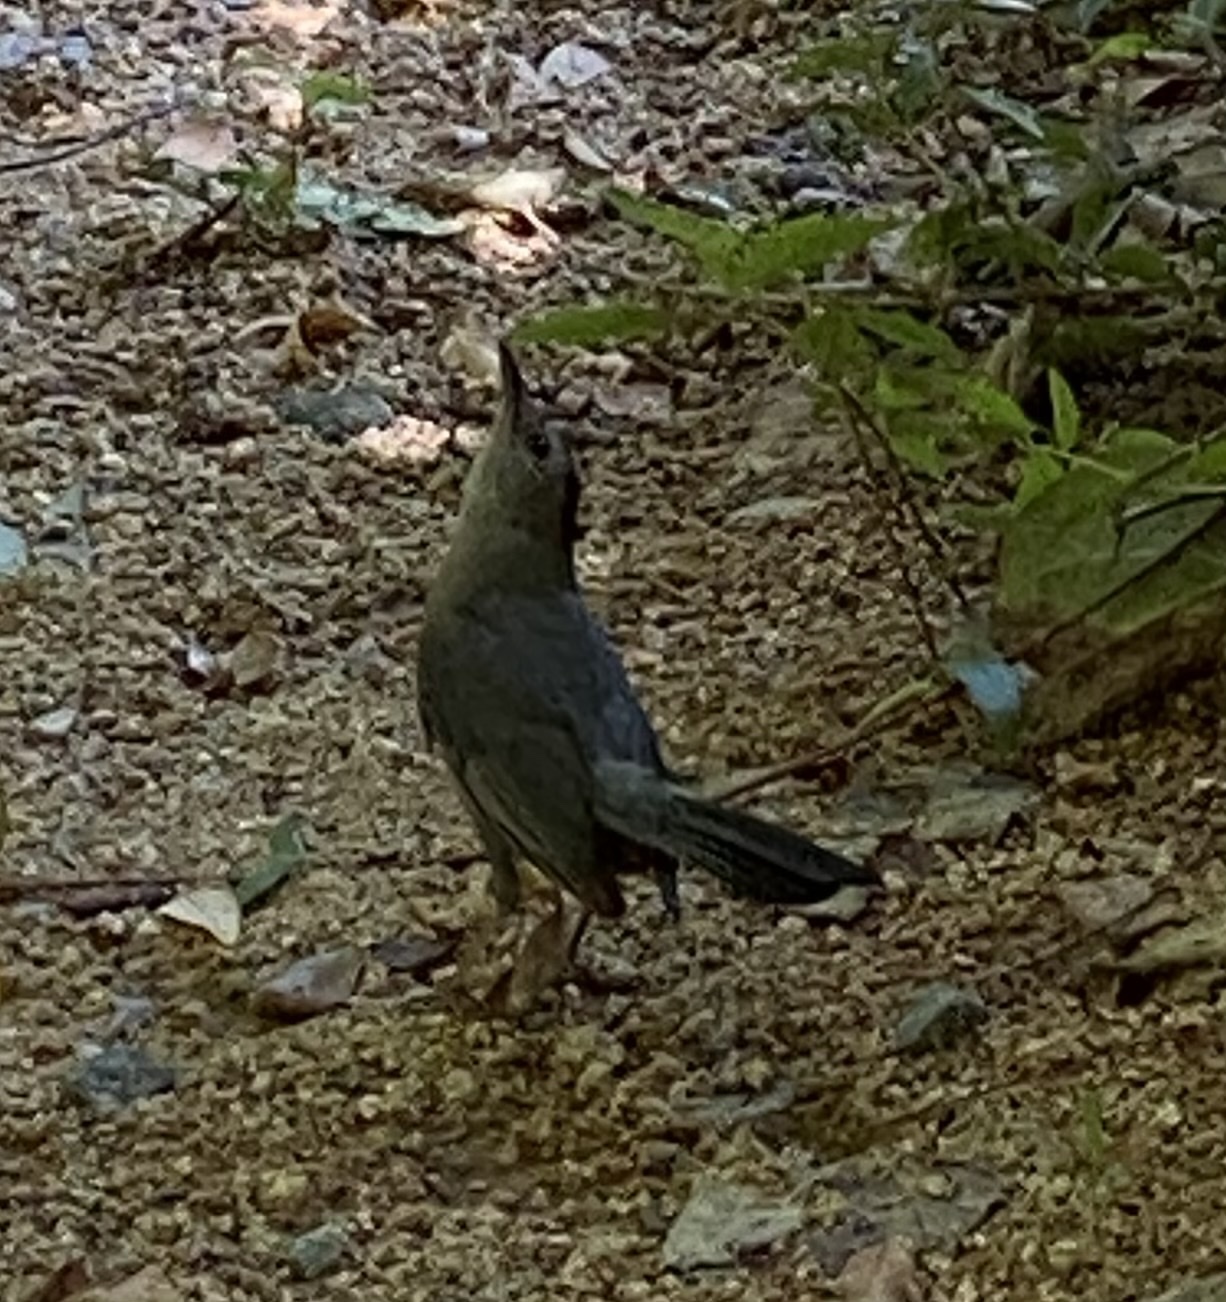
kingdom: Animalia
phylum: Chordata
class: Aves
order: Passeriformes
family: Mimidae
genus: Dumetella
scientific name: Dumetella carolinensis
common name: Gray catbird
